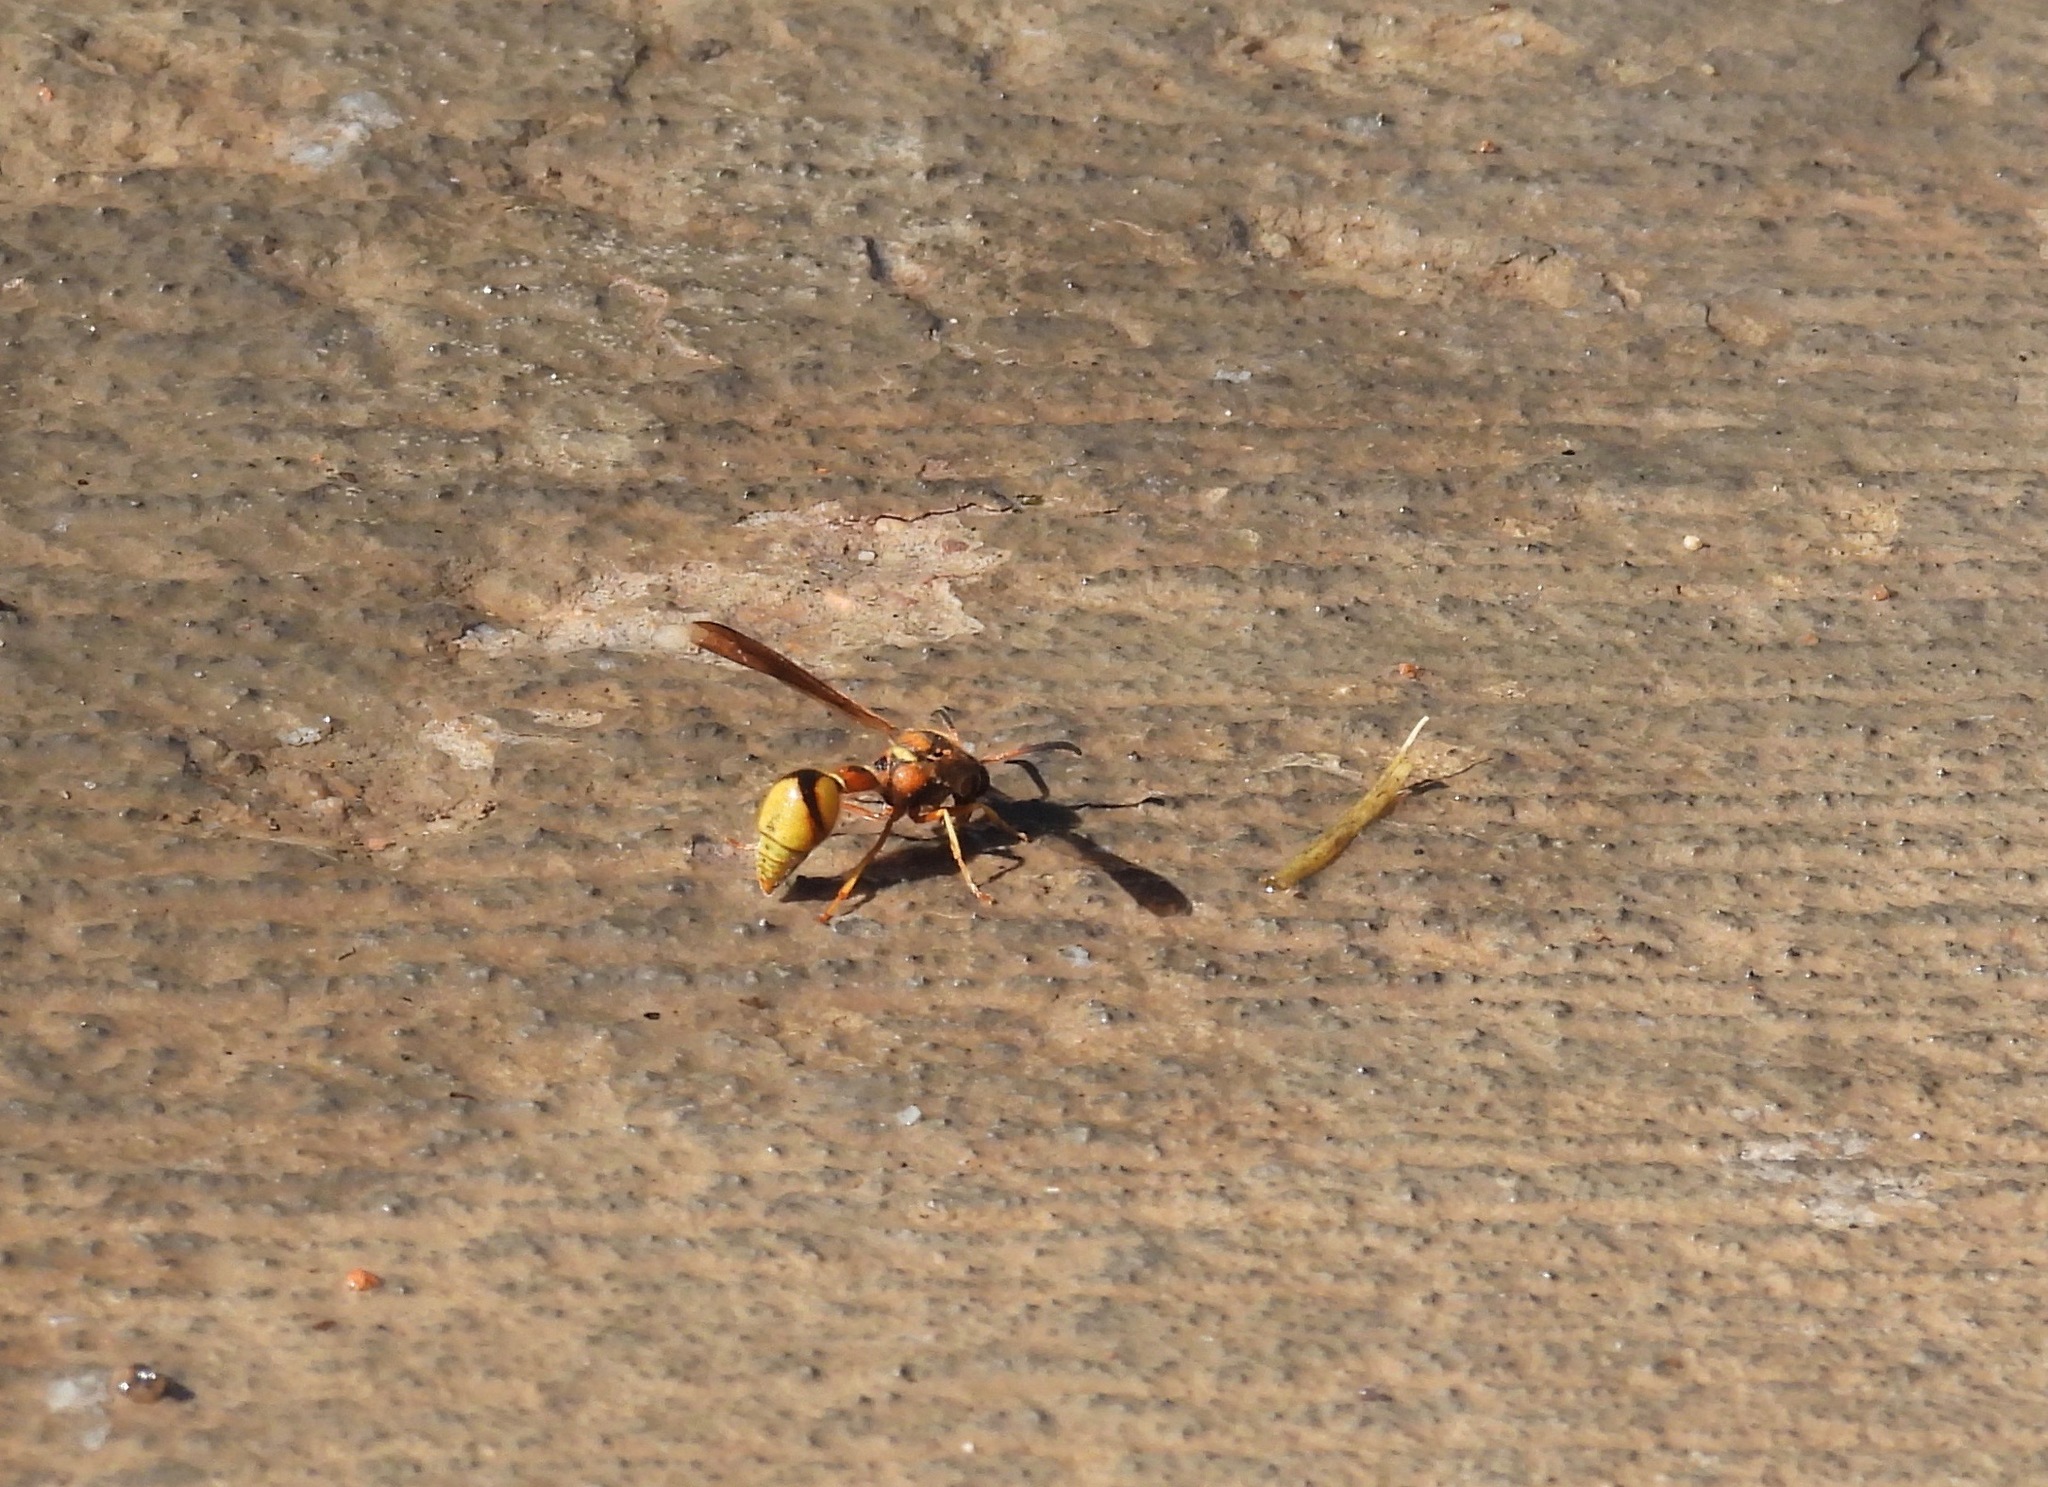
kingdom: Animalia
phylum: Arthropoda
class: Insecta
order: Hymenoptera
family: Vespidae
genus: Eumenes
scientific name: Eumenes bollii
